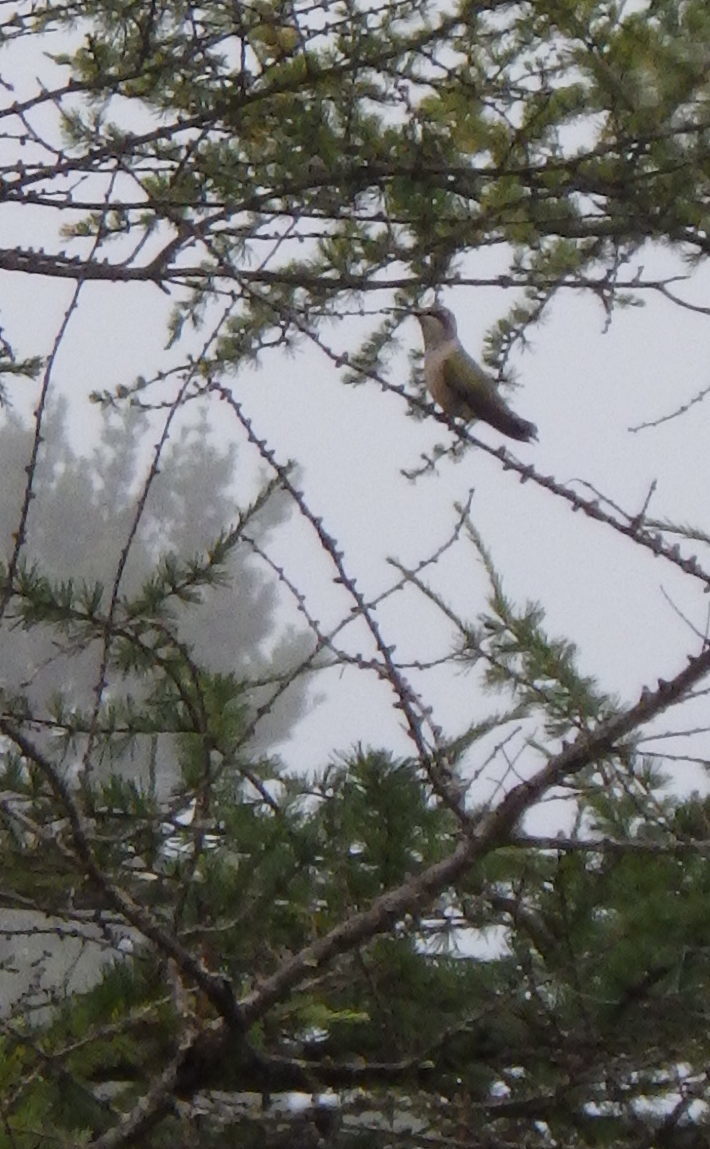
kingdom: Animalia
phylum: Chordata
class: Aves
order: Apodiformes
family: Trochilidae
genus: Archilochus
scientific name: Archilochus colubris
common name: Ruby-throated hummingbird
